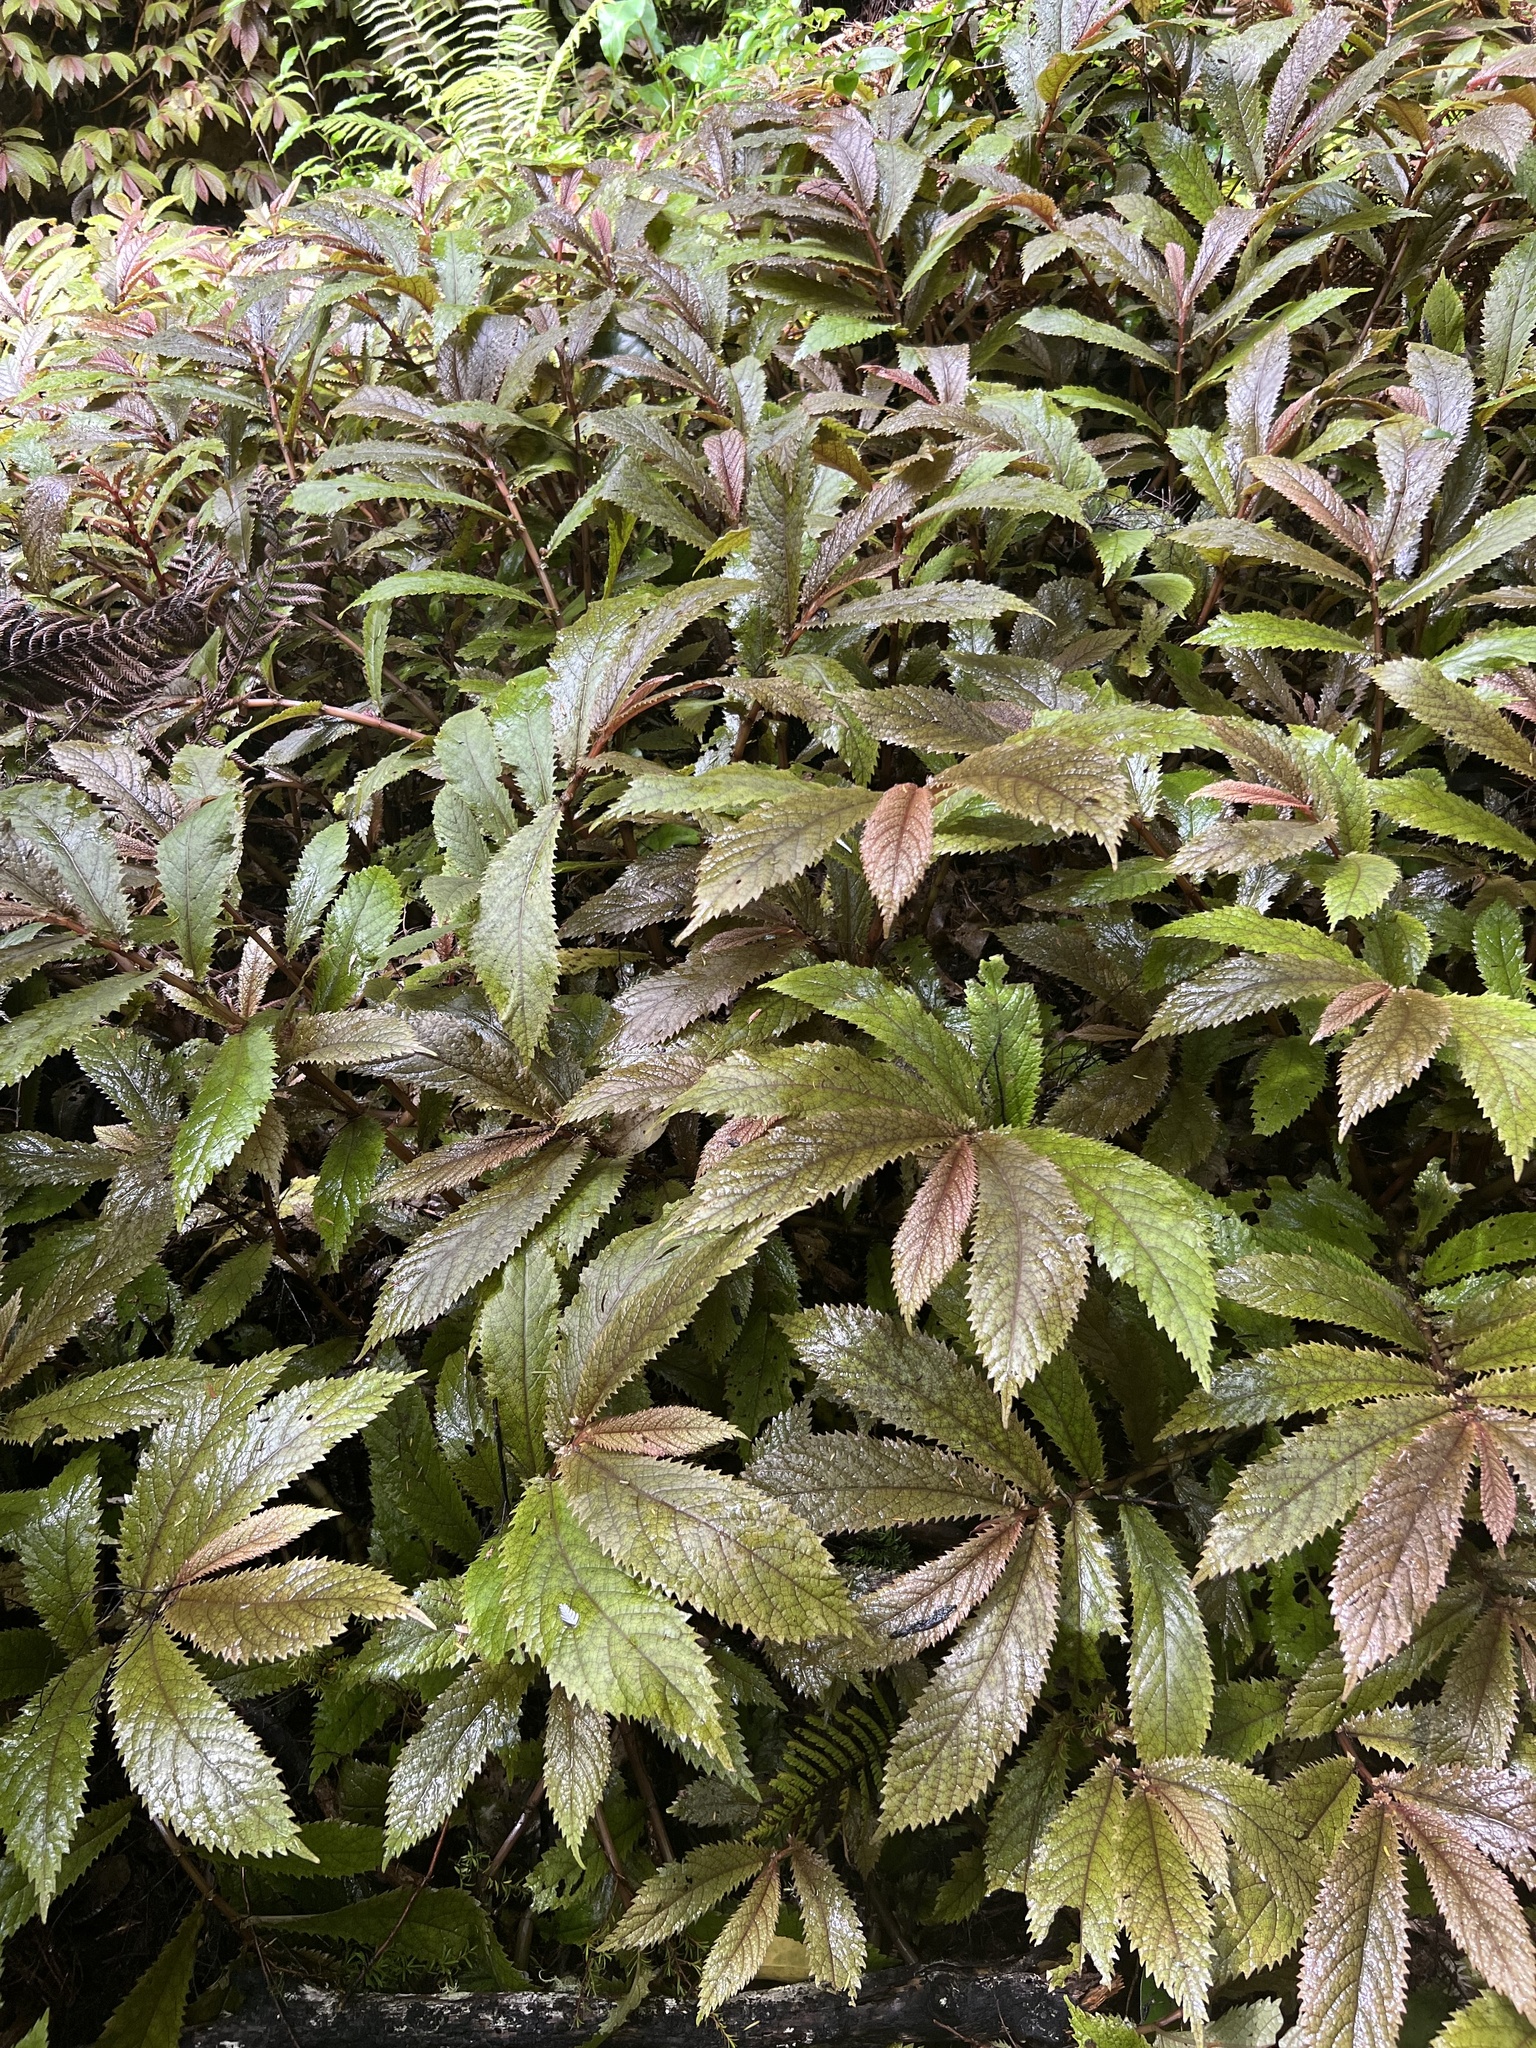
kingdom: Plantae
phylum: Tracheophyta
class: Magnoliopsida
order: Rosales
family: Urticaceae
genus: Elatostema
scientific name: Elatostema rugosum
